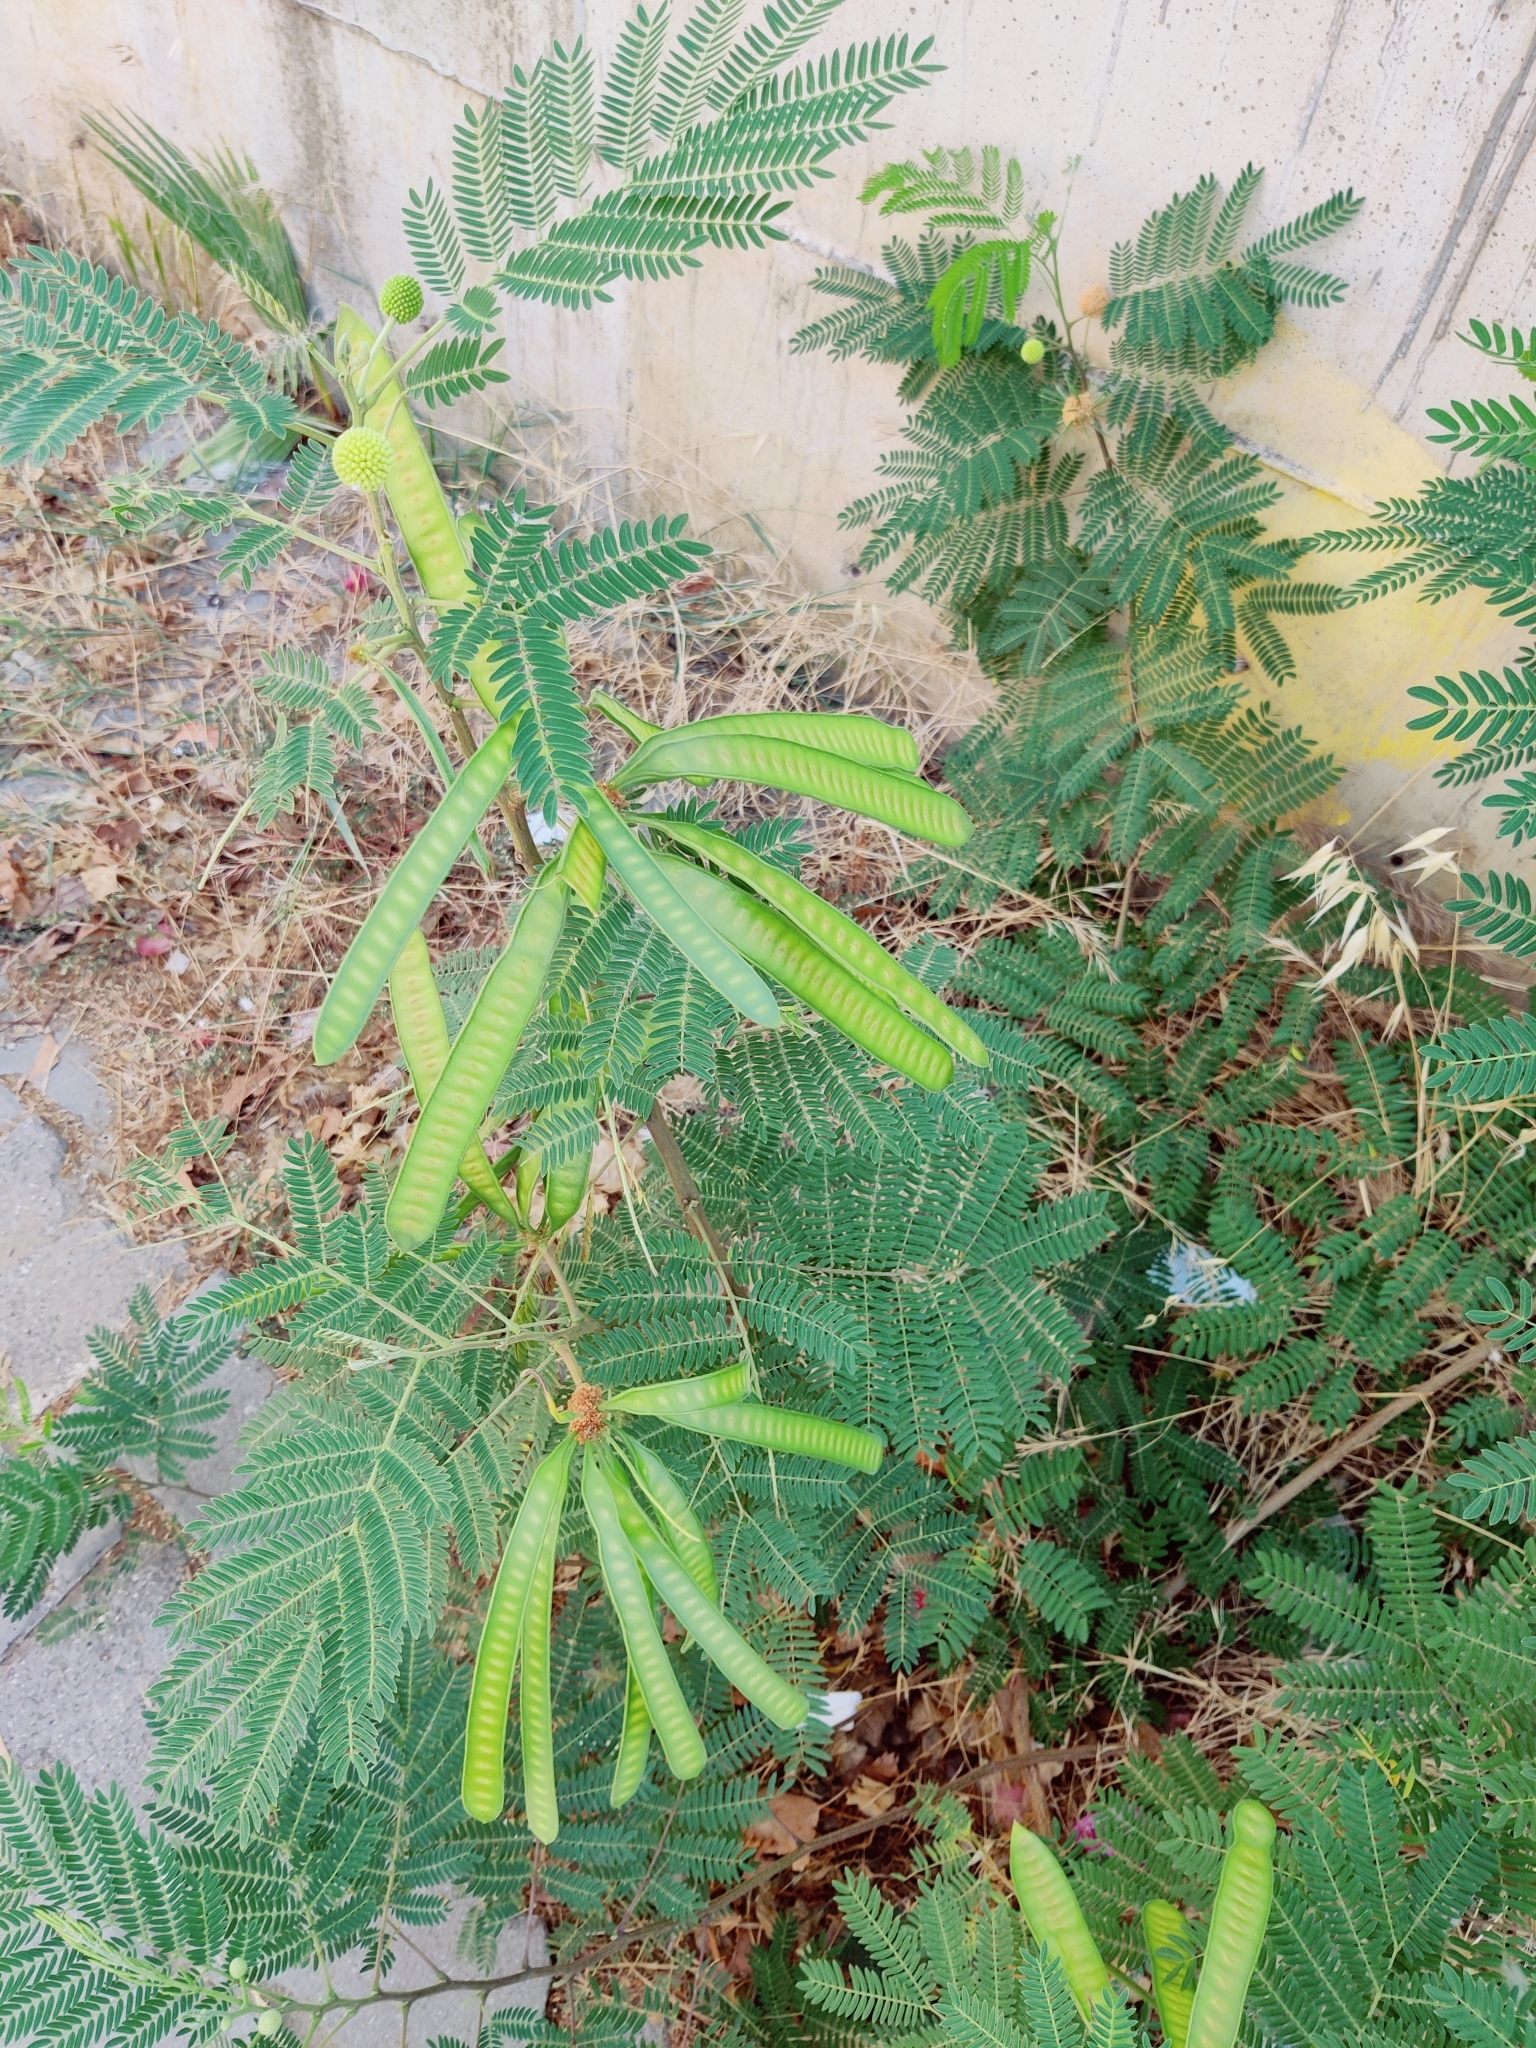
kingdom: Plantae
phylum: Tracheophyta
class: Magnoliopsida
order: Fabales
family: Fabaceae
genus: Leucaena
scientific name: Leucaena leucocephala
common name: White leadtree
